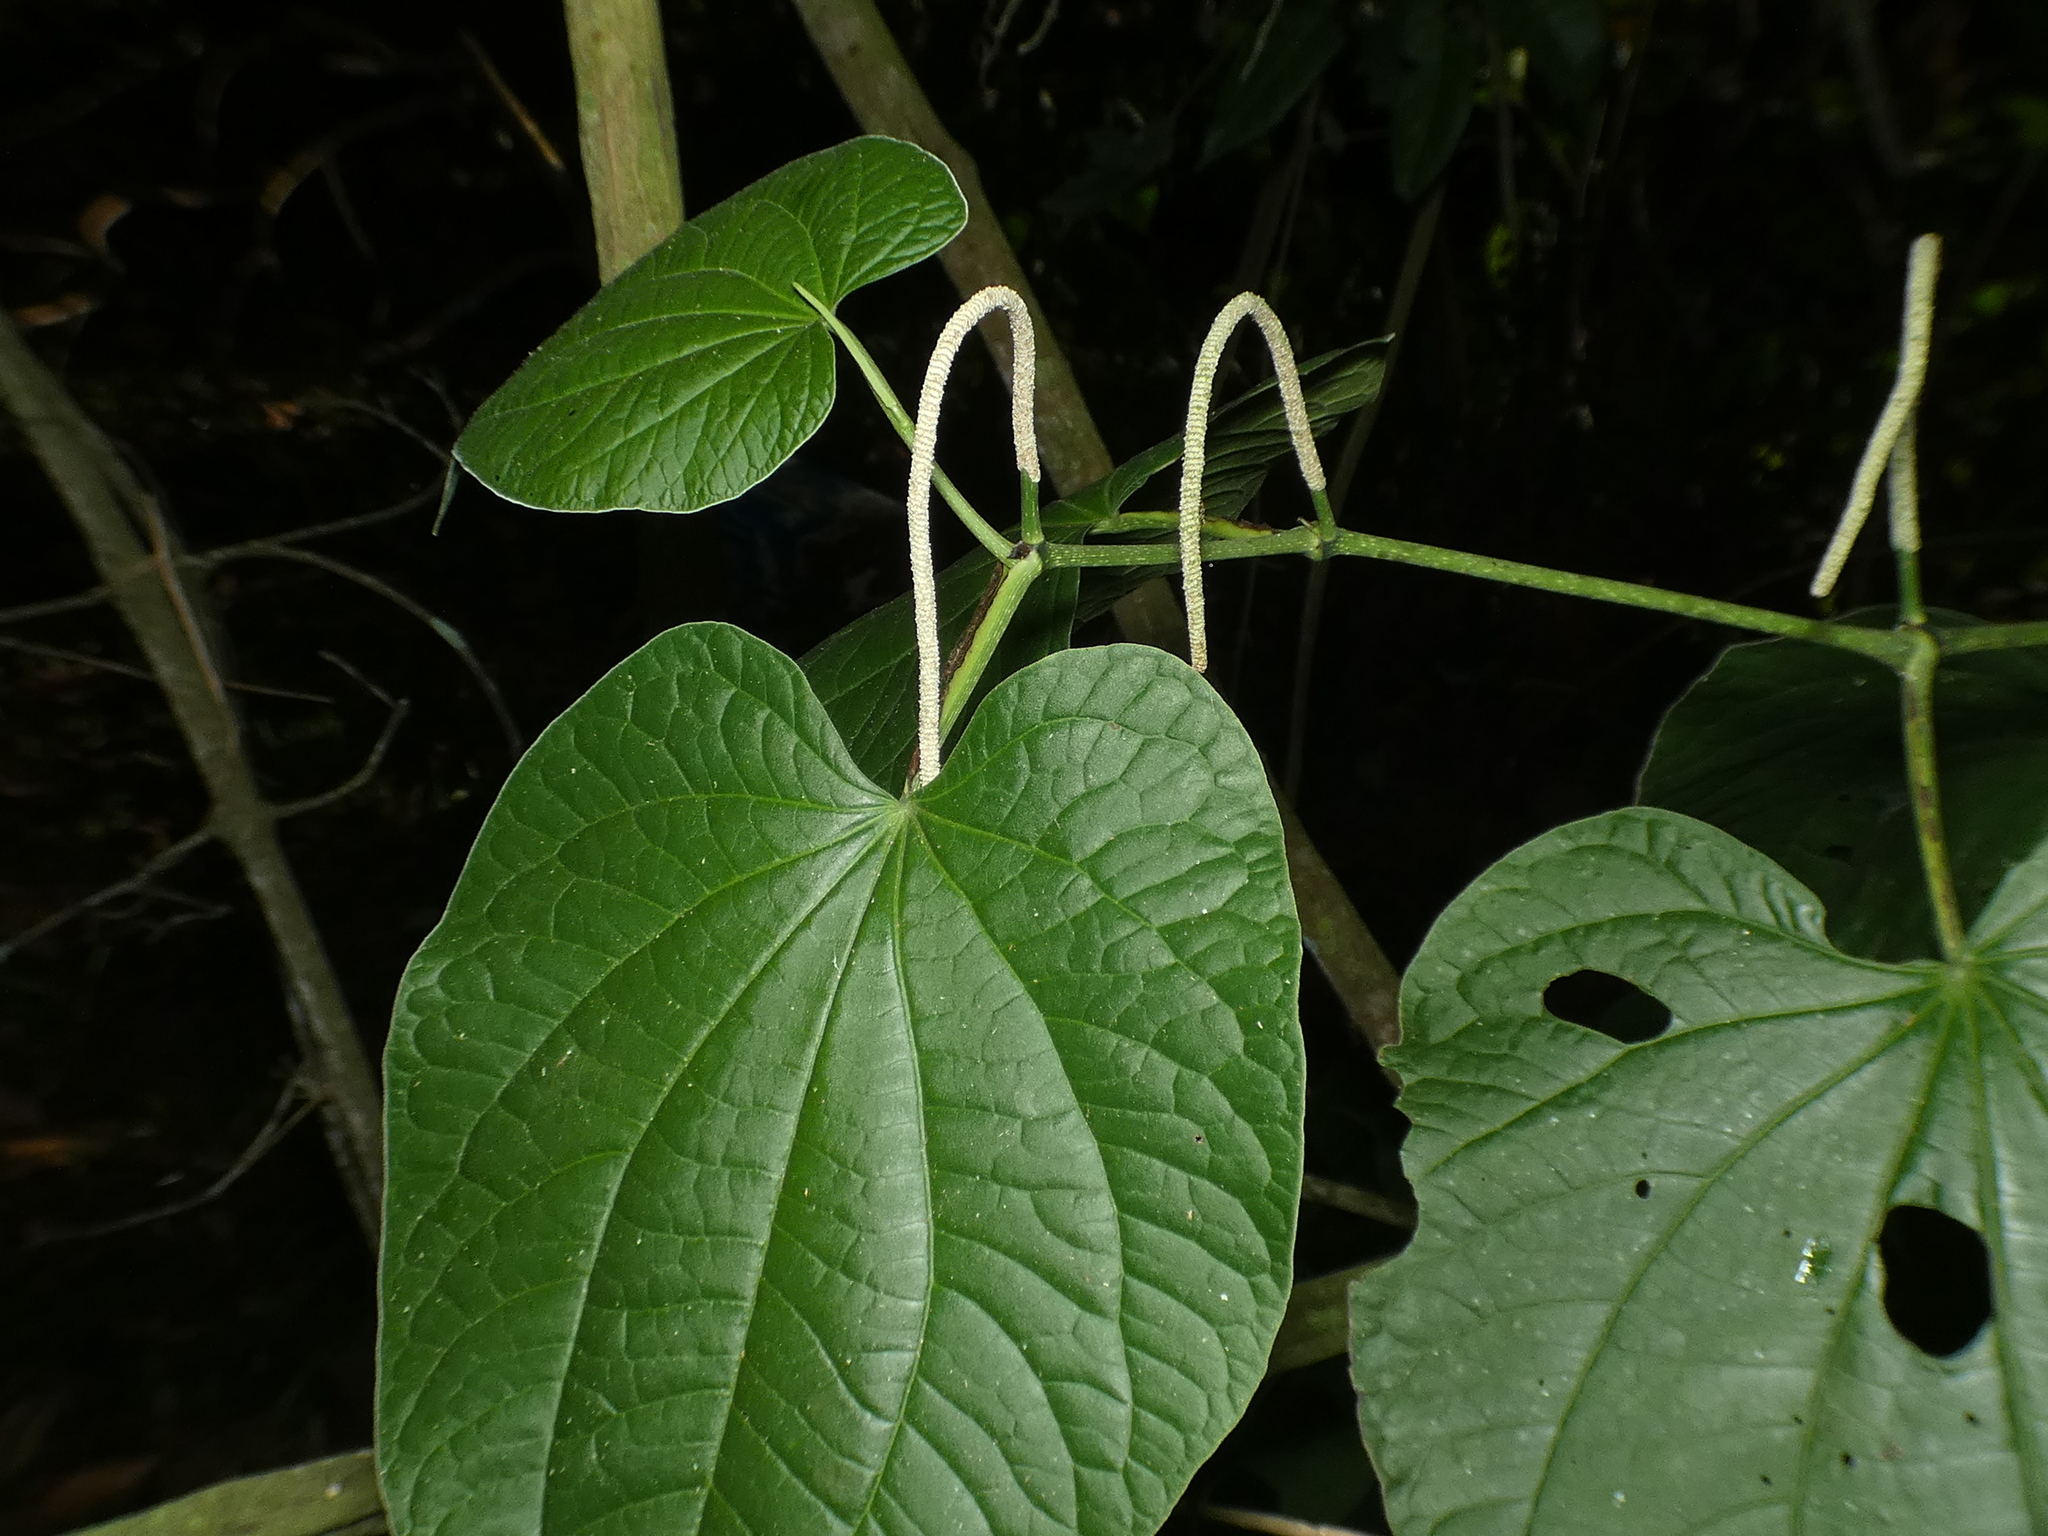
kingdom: Plantae
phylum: Tracheophyta
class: Magnoliopsida
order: Piperales
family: Piperaceae
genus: Piper
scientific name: Piper marginatum
